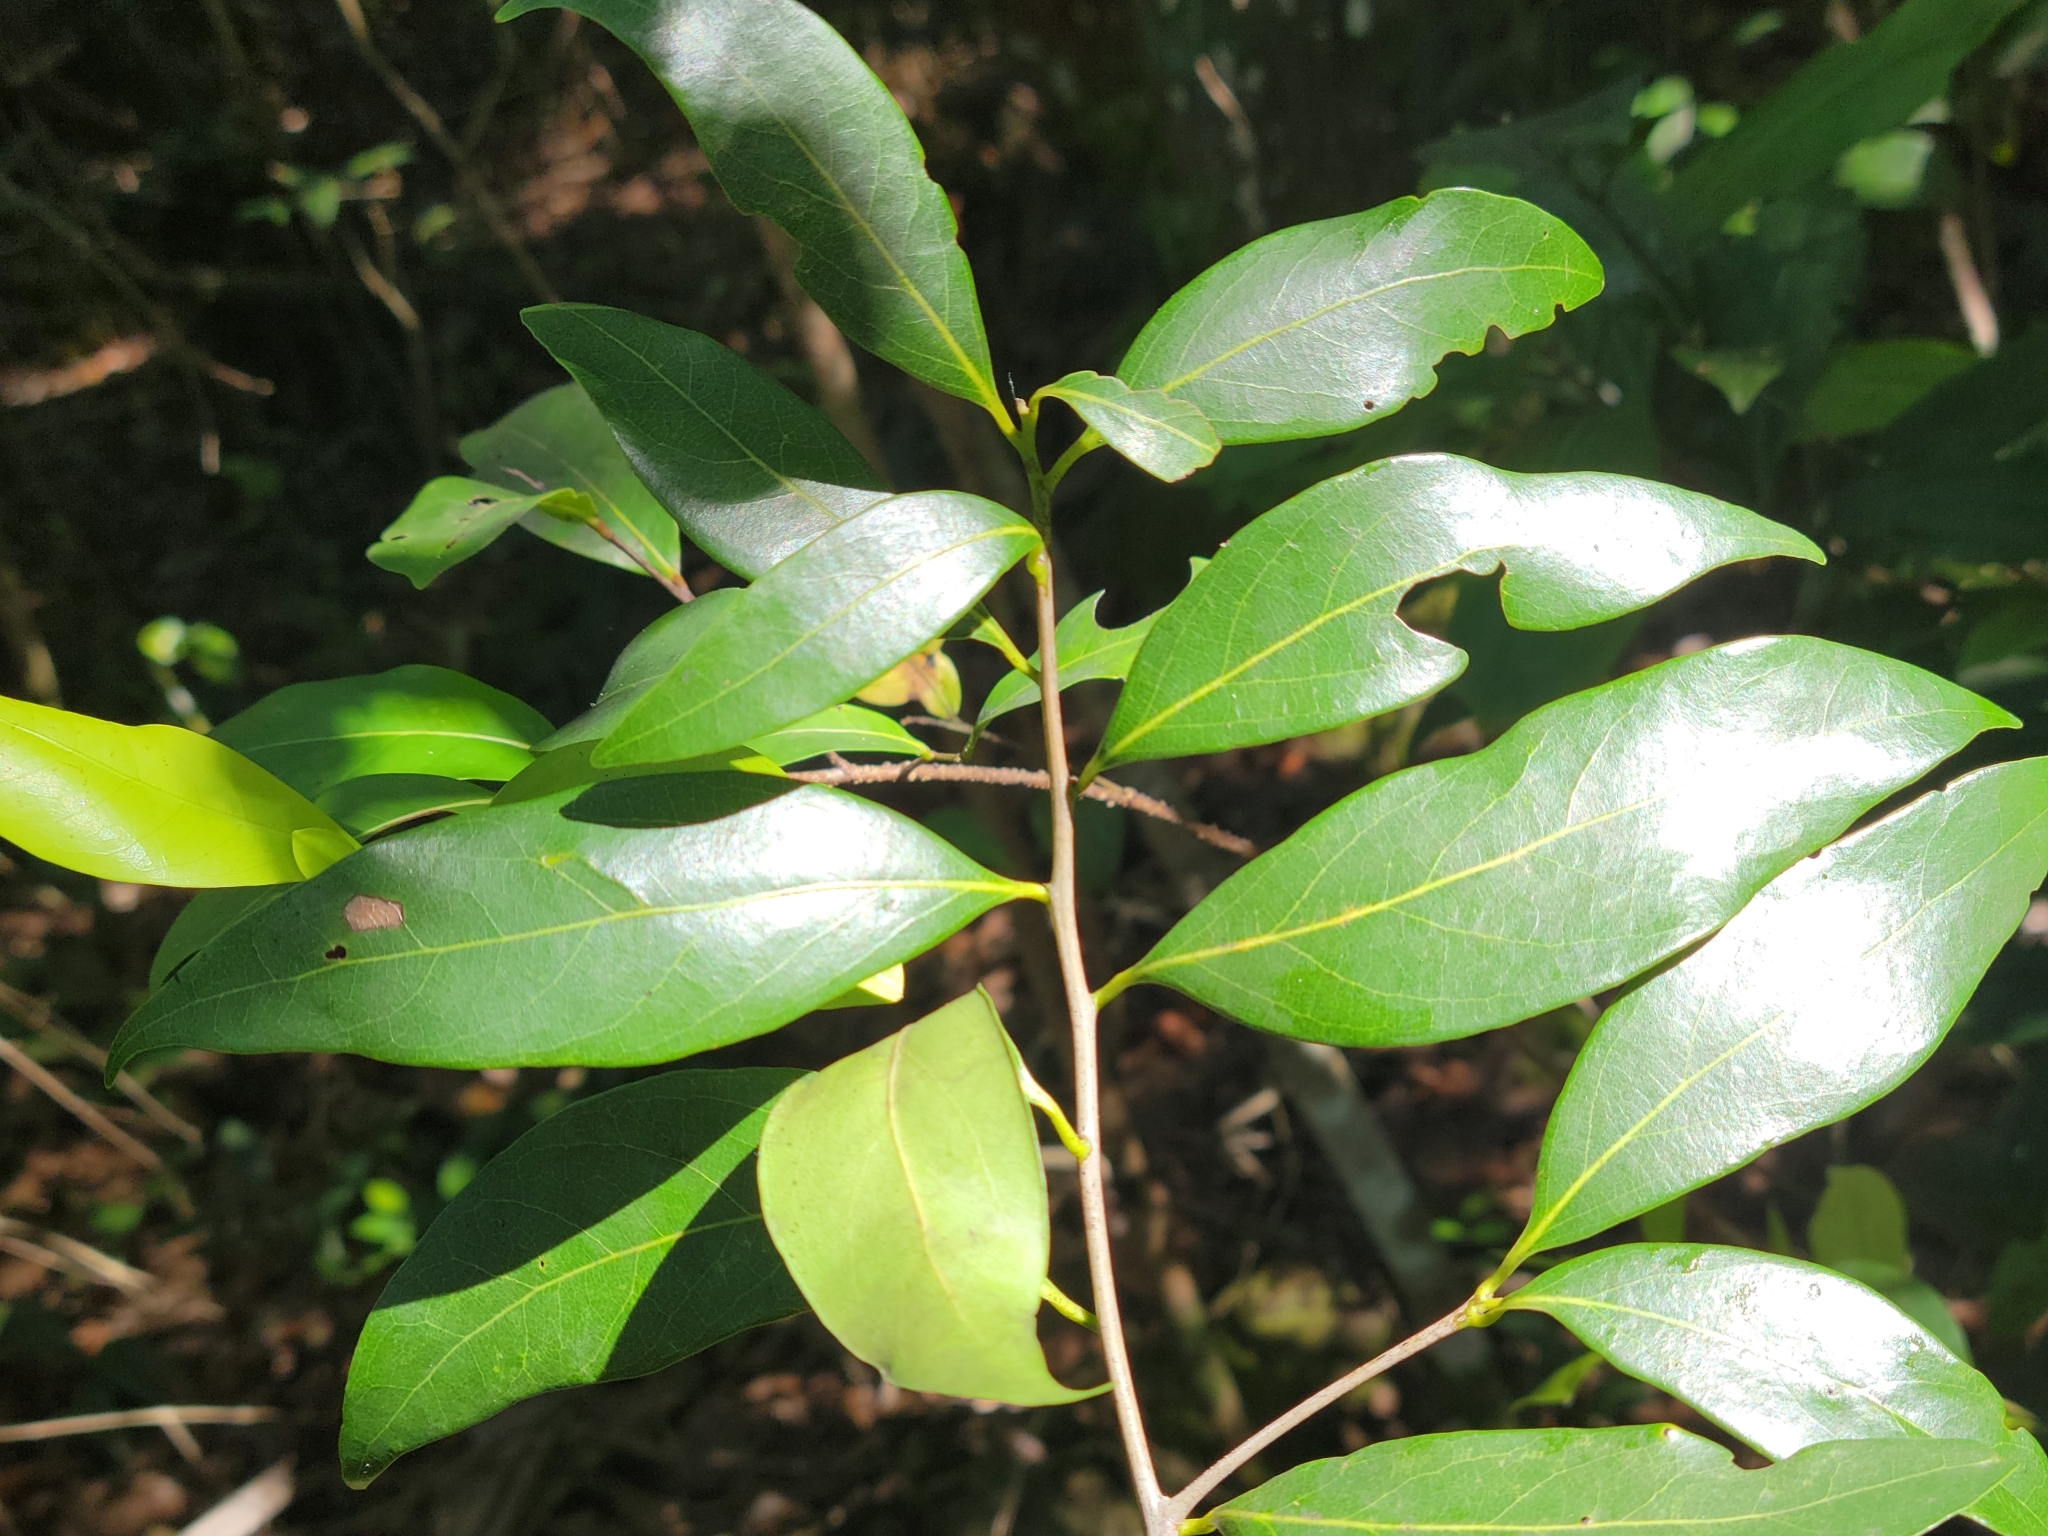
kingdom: Plantae
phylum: Tracheophyta
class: Magnoliopsida
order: Laurales
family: Lauraceae
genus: Damburneya
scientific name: Damburneya
